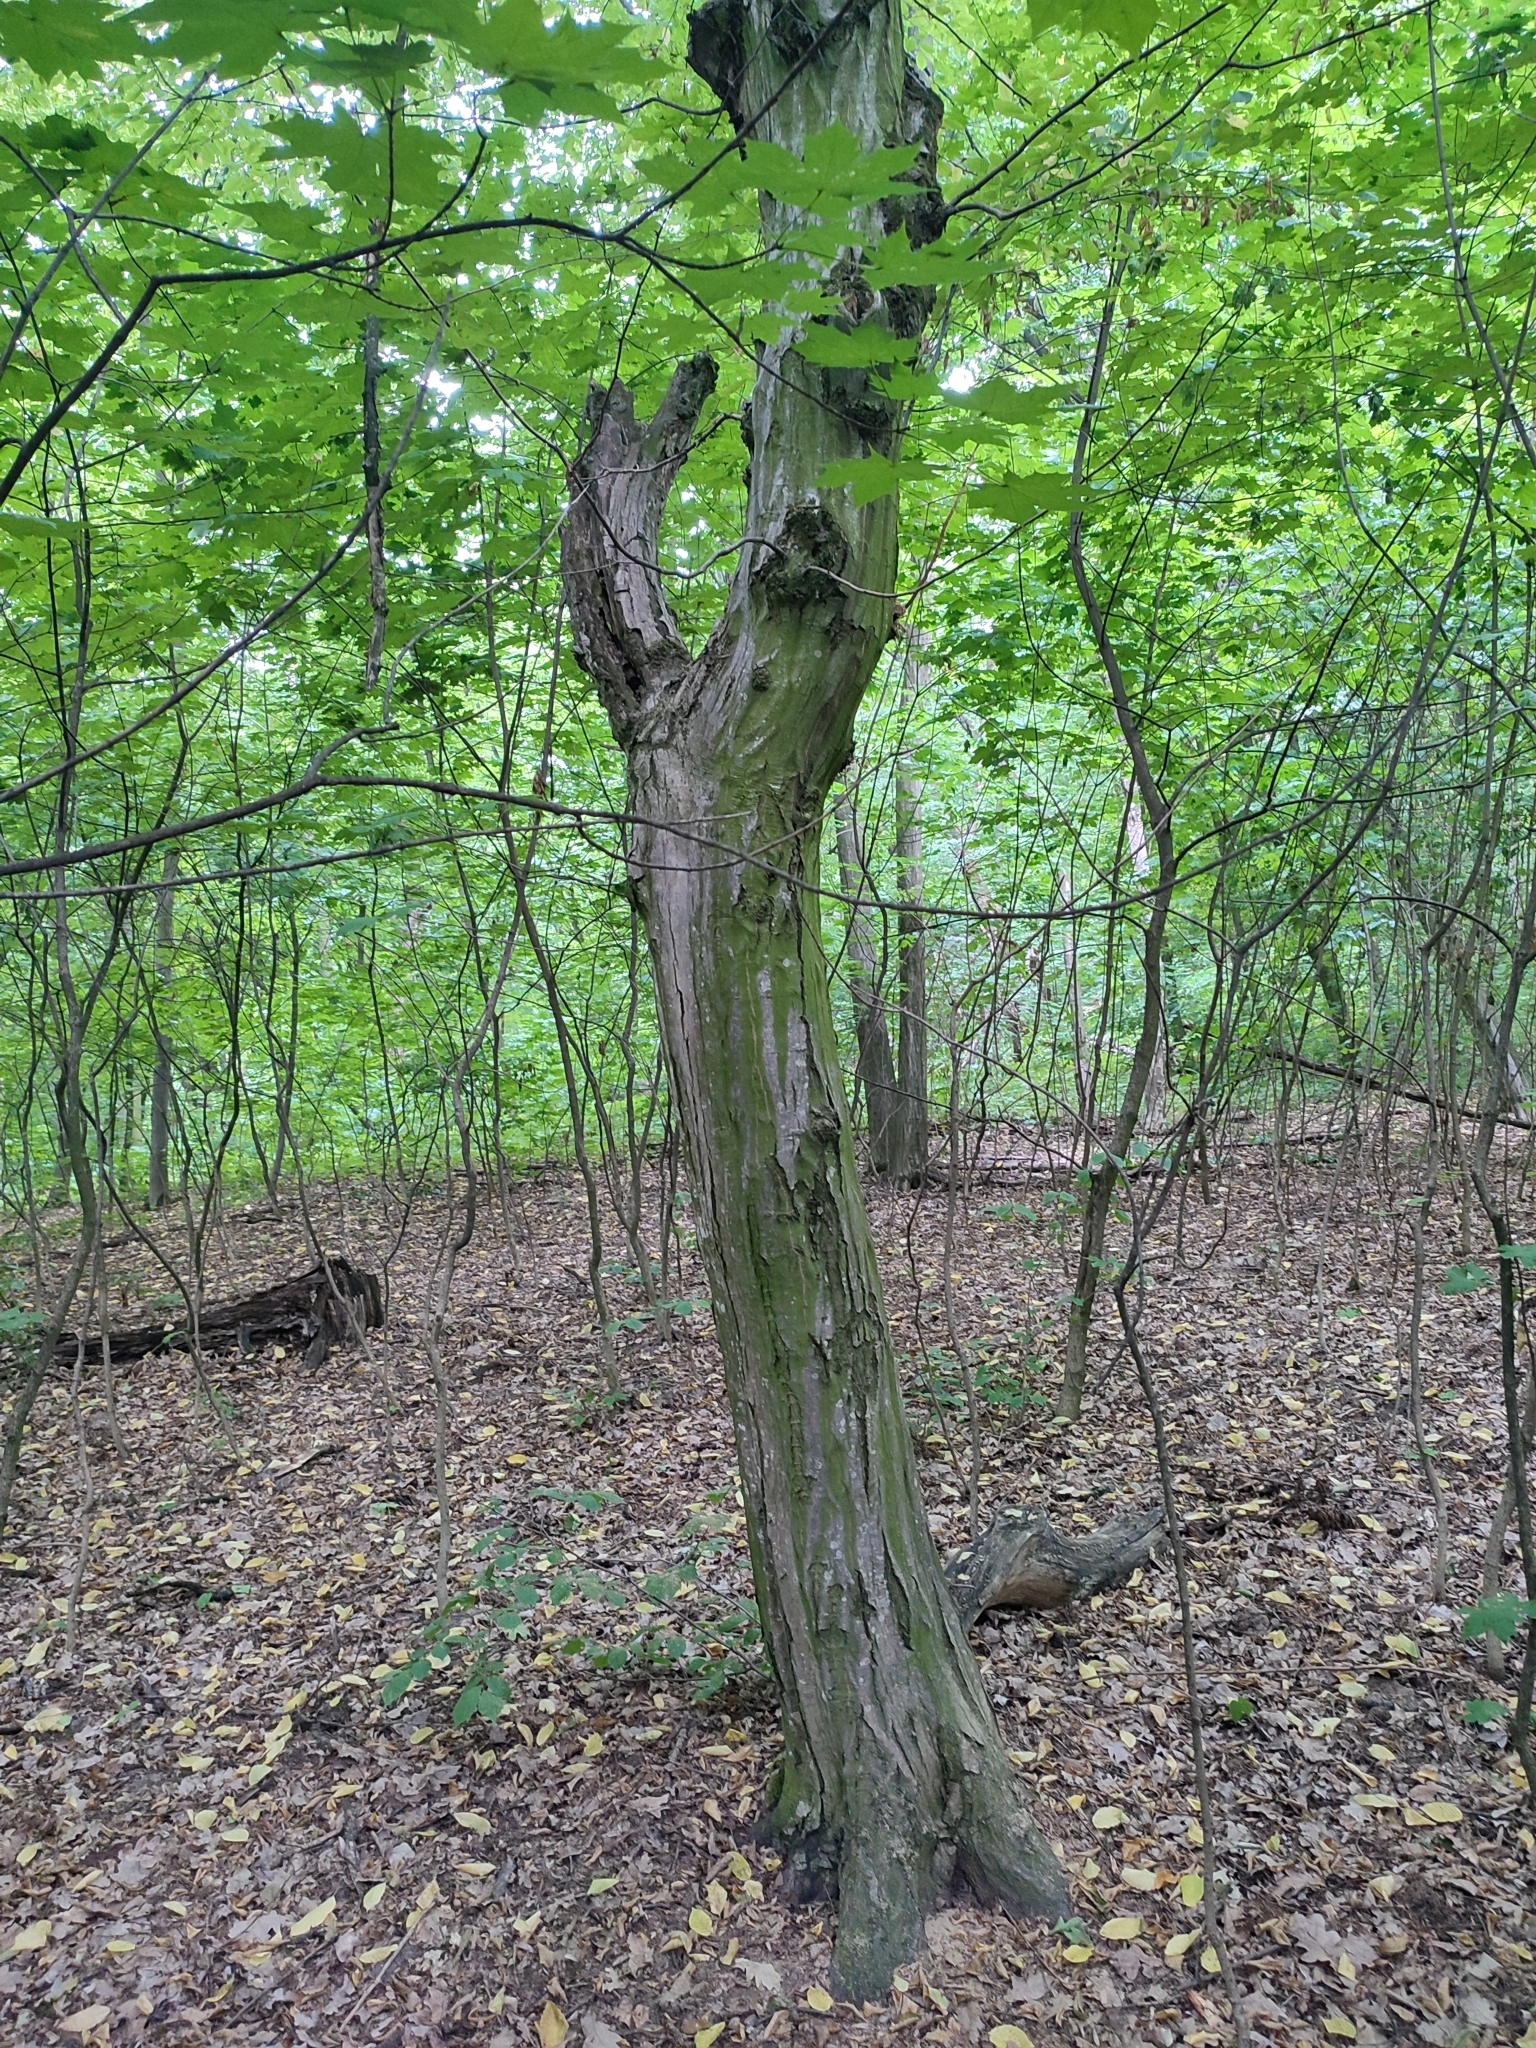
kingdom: Plantae
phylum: Tracheophyta
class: Magnoliopsida
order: Fagales
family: Betulaceae
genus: Carpinus
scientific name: Carpinus betulus
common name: Hornbeam
